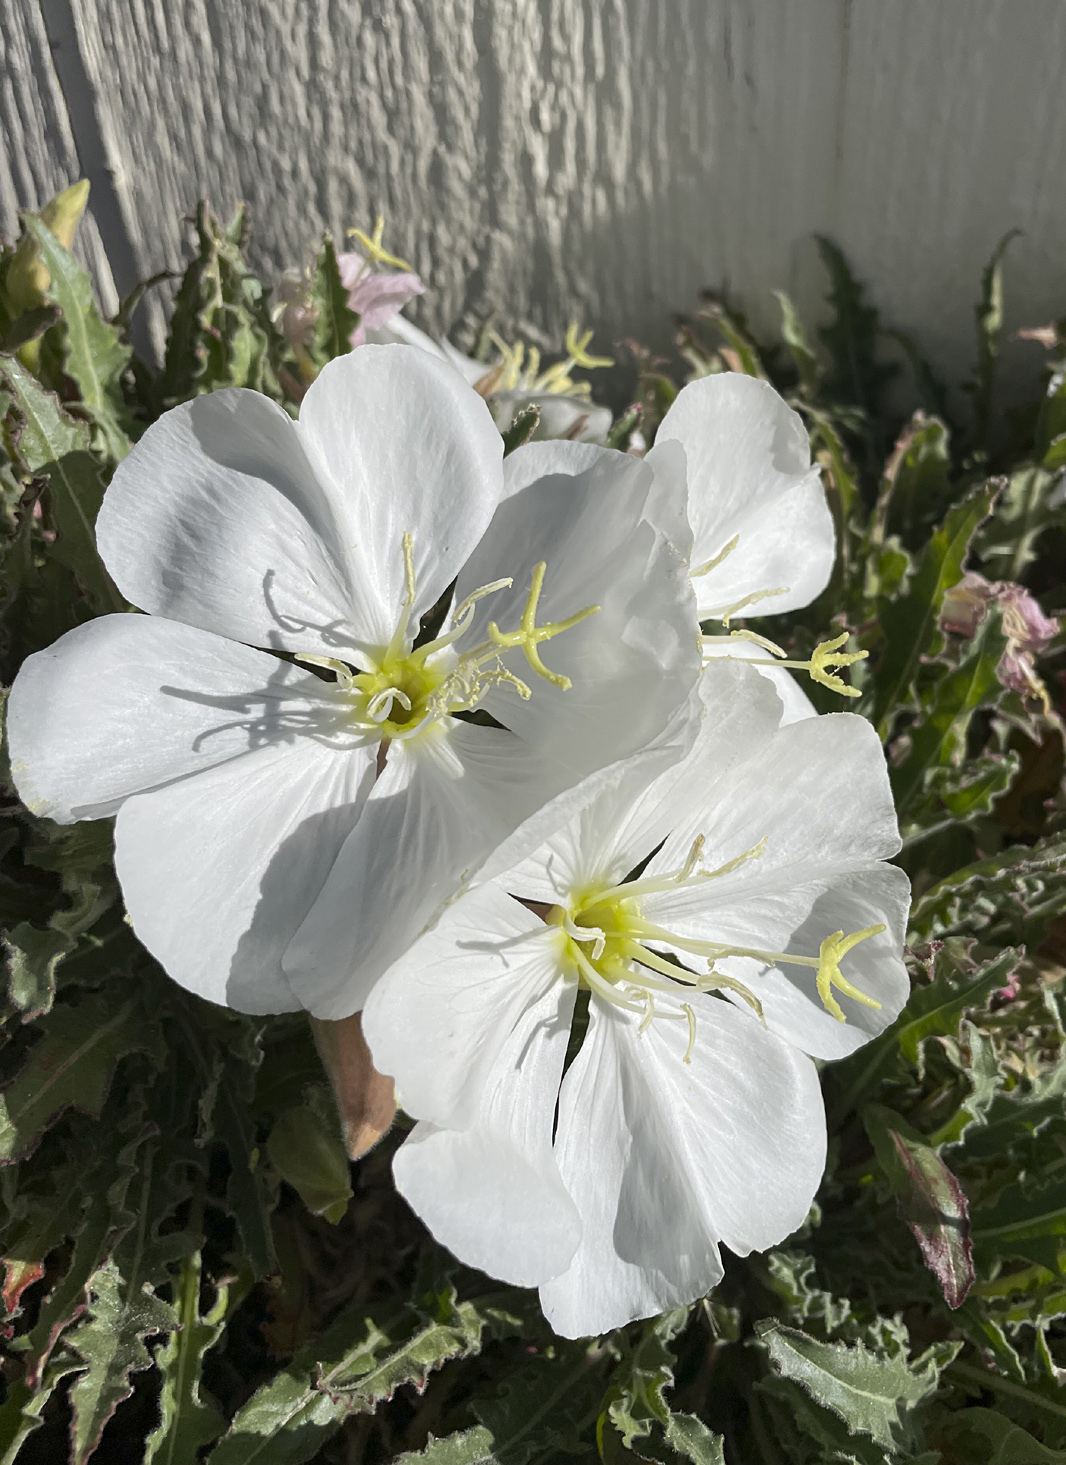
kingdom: Plantae
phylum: Tracheophyta
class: Magnoliopsida
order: Myrtales
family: Onagraceae
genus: Oenothera
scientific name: Oenothera cespitosa
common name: Tufted evening-primrose
